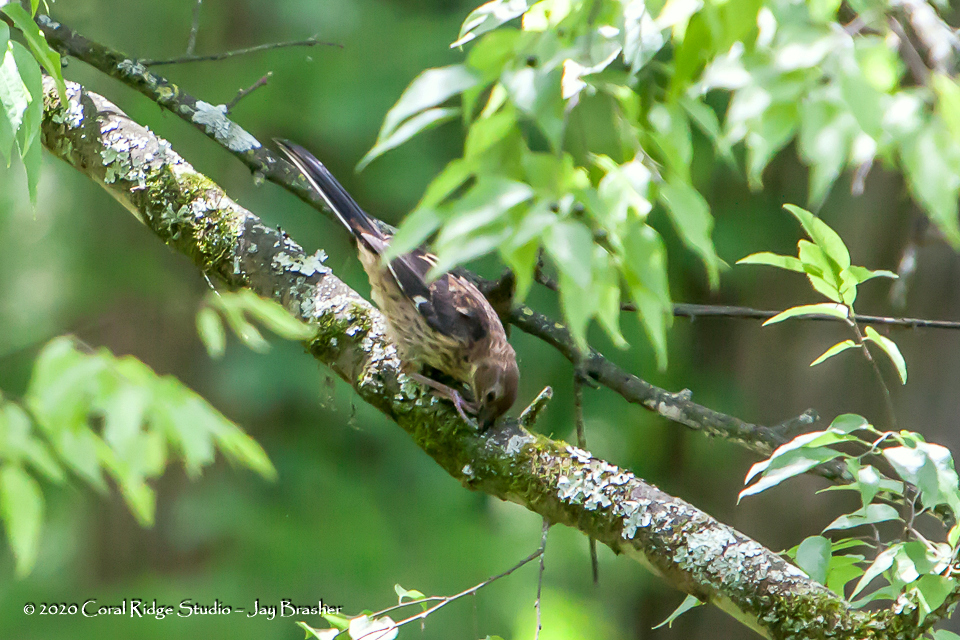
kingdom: Animalia
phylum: Chordata
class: Aves
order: Passeriformes
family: Passerellidae
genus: Pipilo
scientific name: Pipilo erythrophthalmus
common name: Eastern towhee
